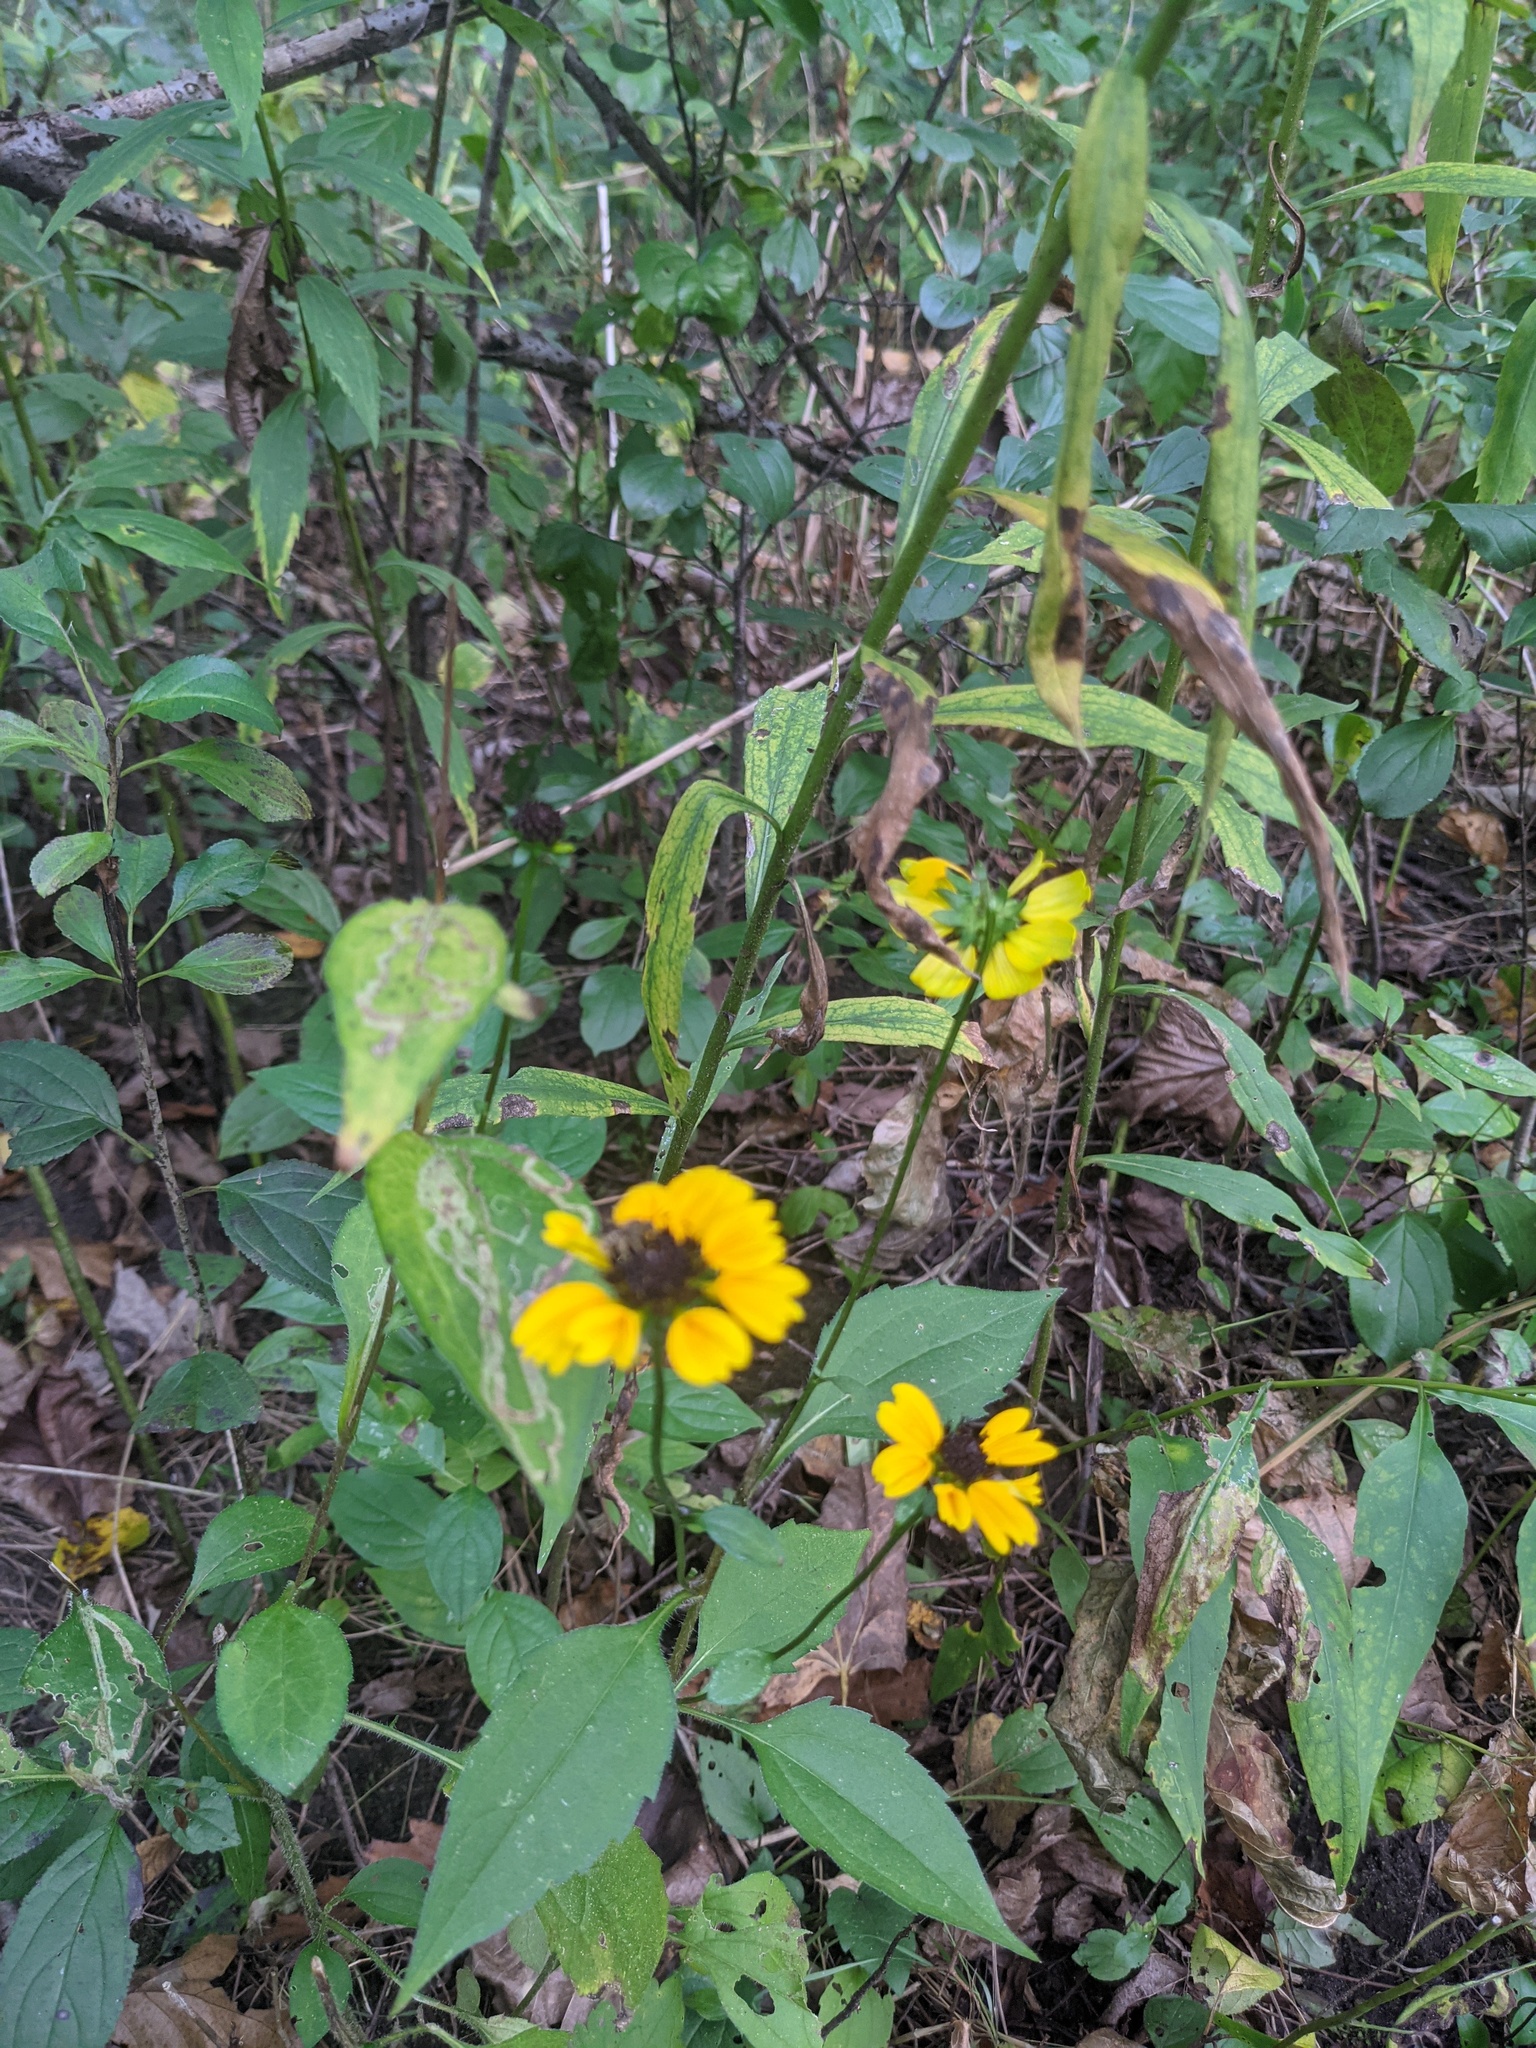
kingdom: Plantae
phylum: Tracheophyta
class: Magnoliopsida
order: Asterales
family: Asteraceae
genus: Rudbeckia
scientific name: Rudbeckia triloba
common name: Thin-leaved coneflower
